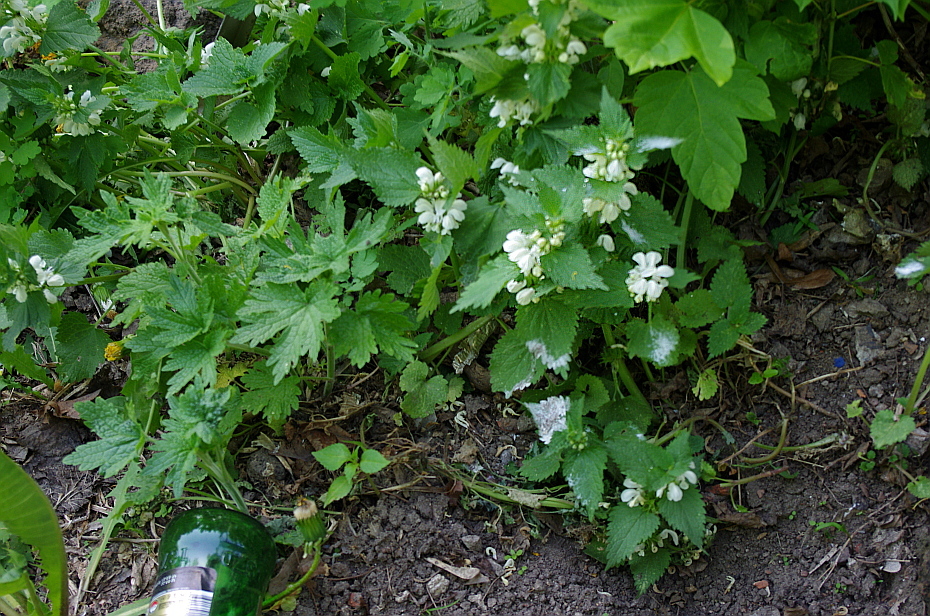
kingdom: Plantae
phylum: Tracheophyta
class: Magnoliopsida
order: Lamiales
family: Lamiaceae
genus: Lamium
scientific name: Lamium album
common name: White dead-nettle
